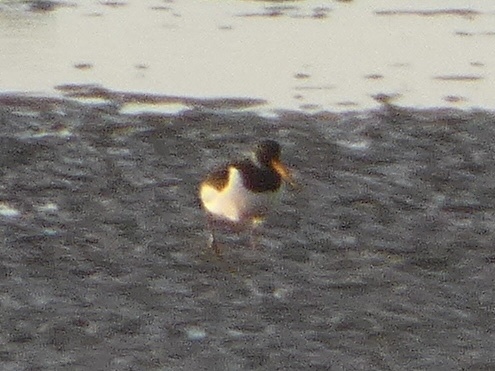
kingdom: Animalia
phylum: Chordata
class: Aves
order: Charadriiformes
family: Haematopodidae
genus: Haematopus
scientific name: Haematopus ostralegus
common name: Eurasian oystercatcher
